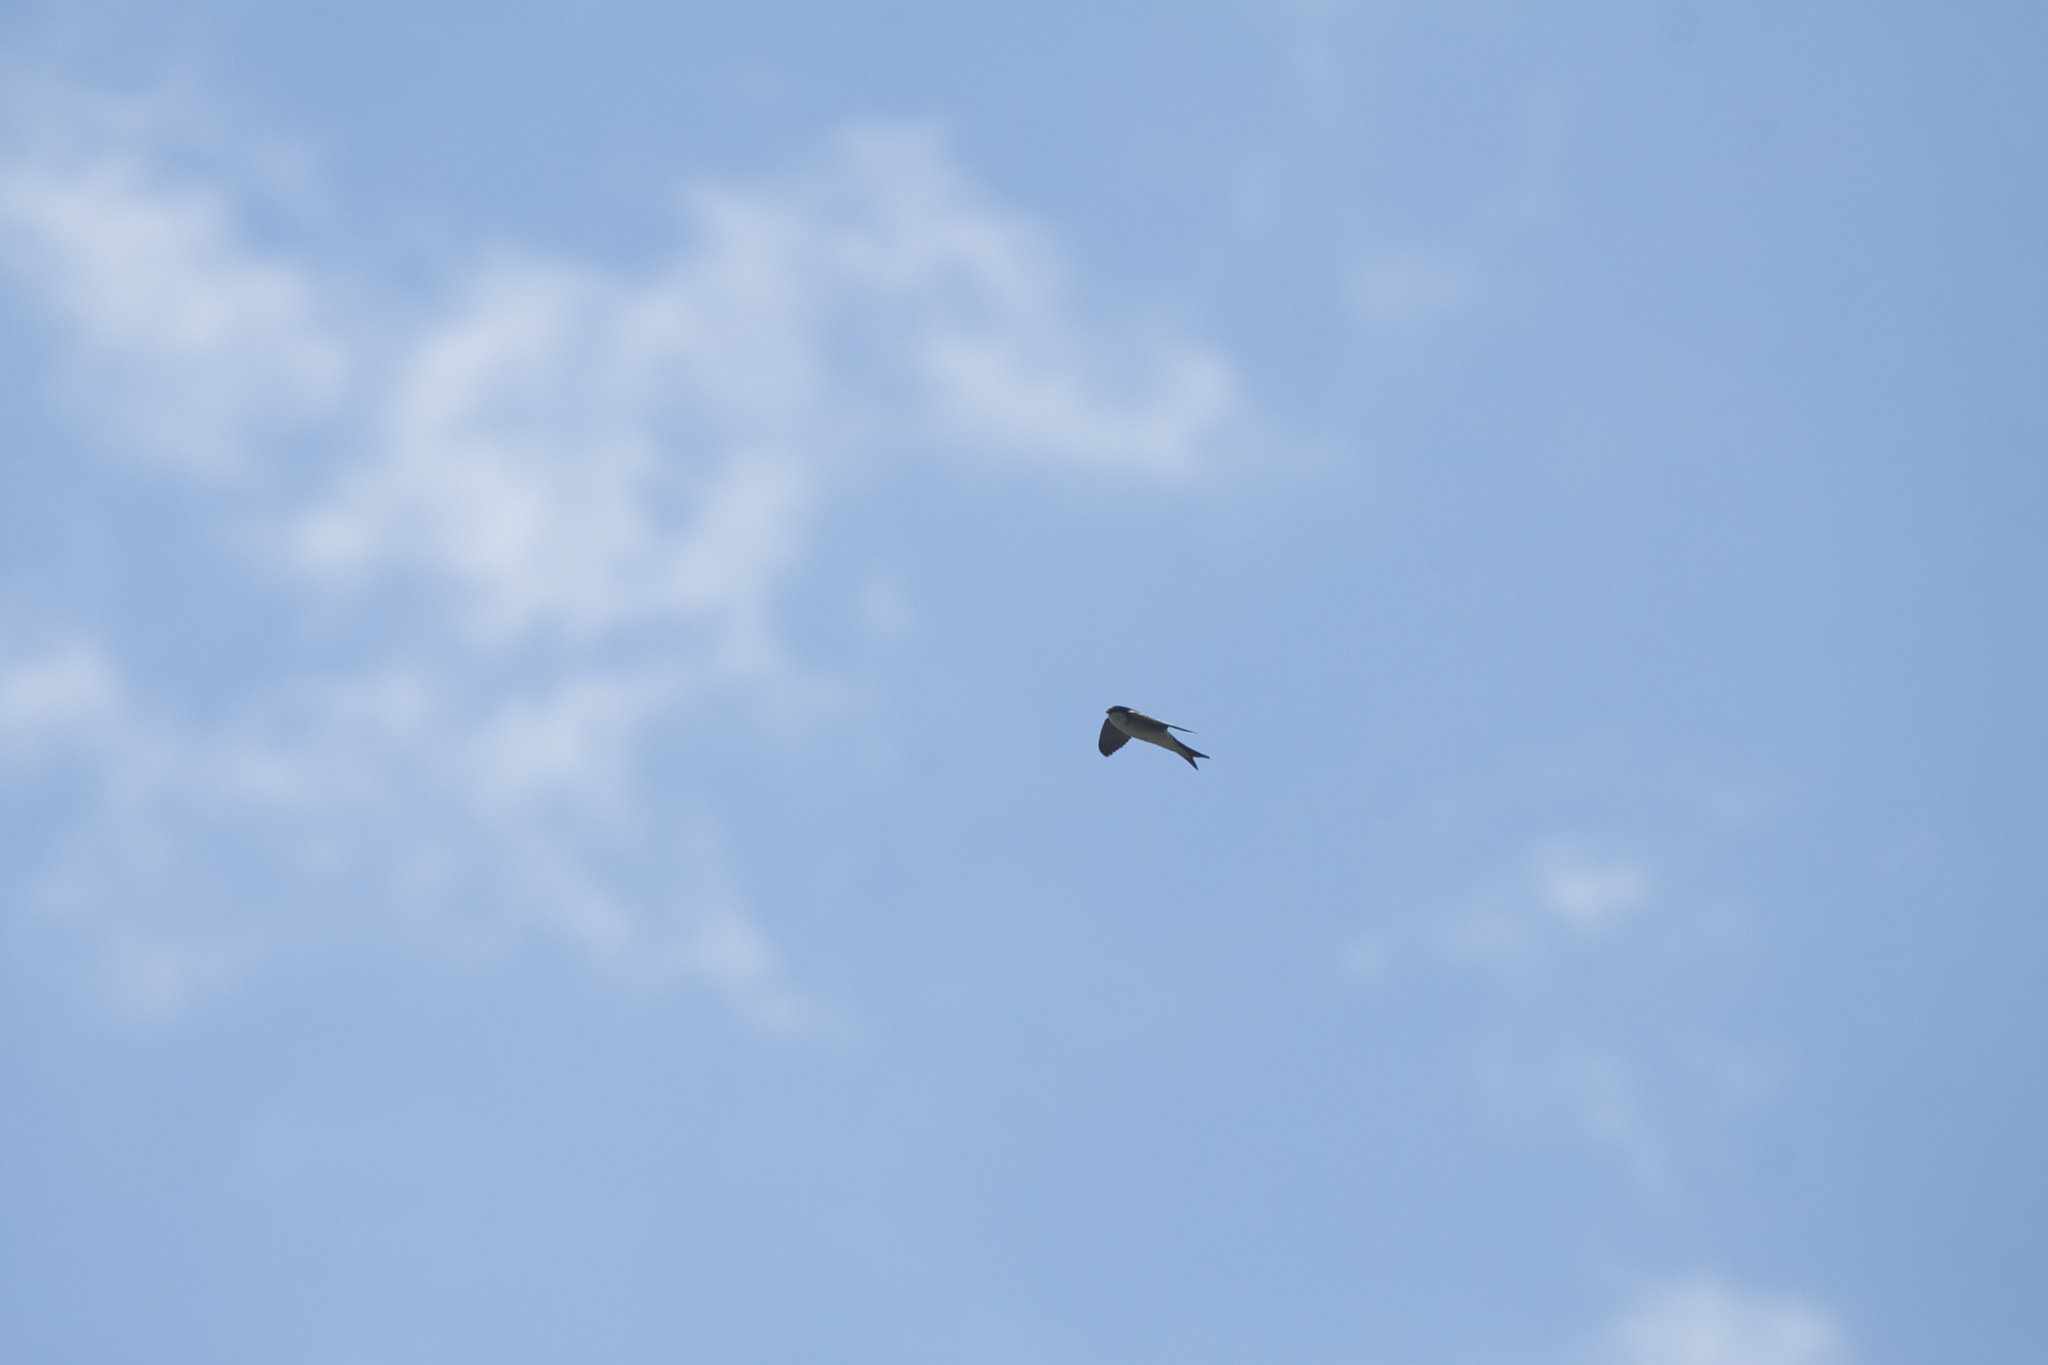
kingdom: Animalia
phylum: Chordata
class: Aves
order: Passeriformes
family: Hirundinidae
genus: Delichon
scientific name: Delichon urbicum
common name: Common house martin
